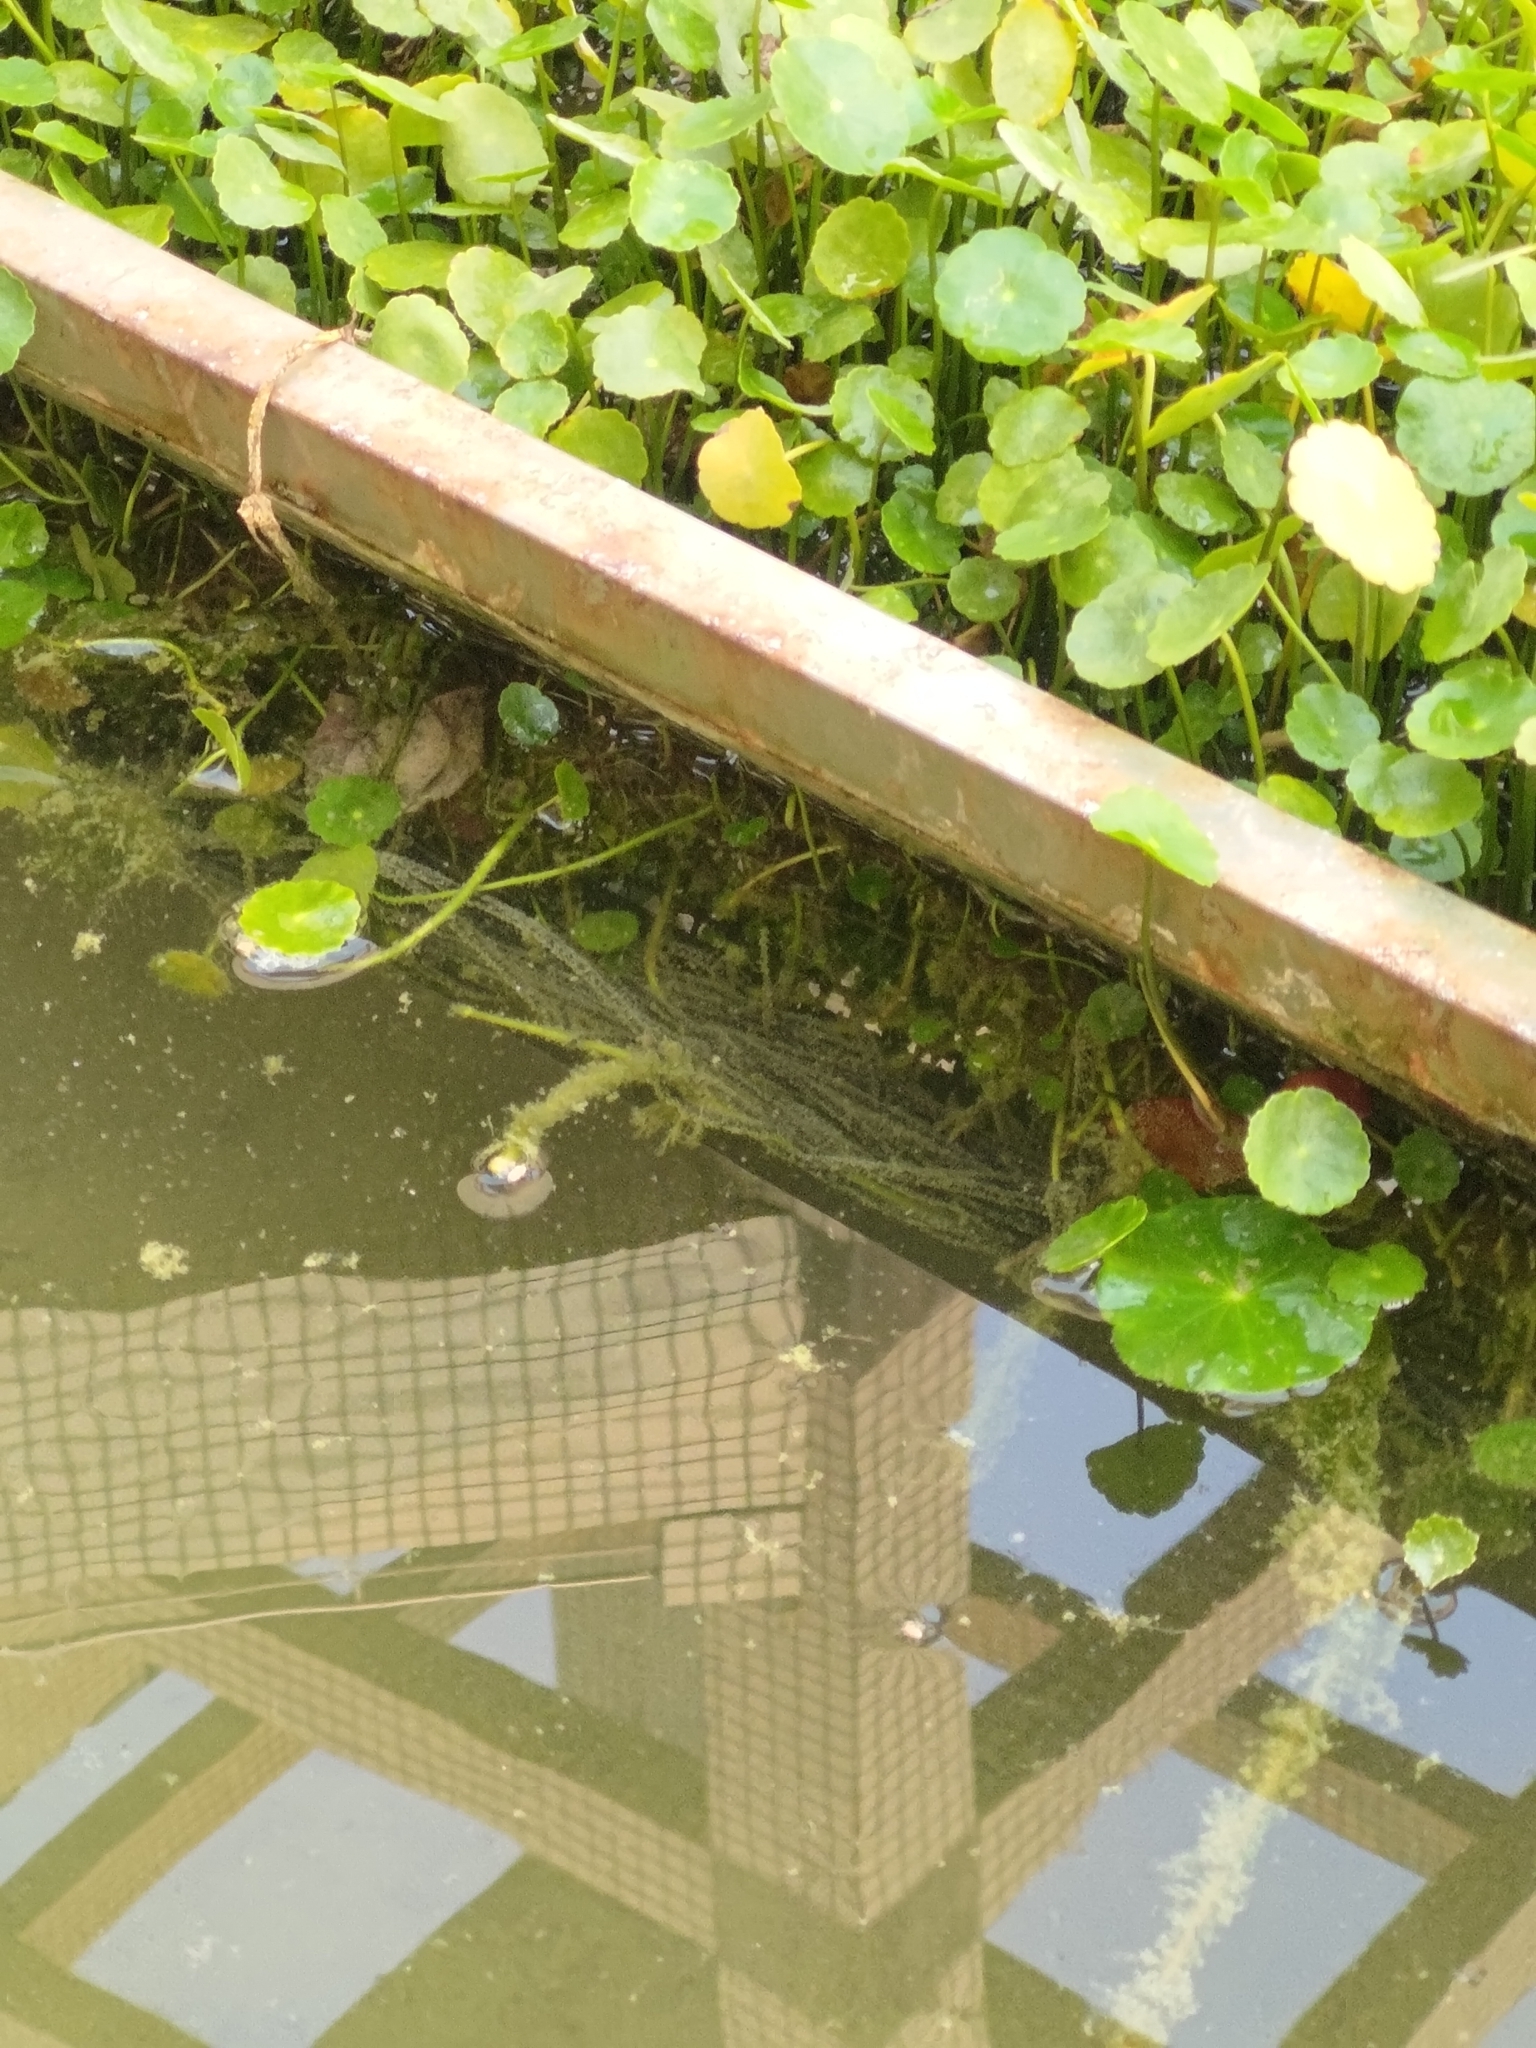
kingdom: Animalia
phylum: Chordata
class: Amphibia
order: Anura
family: Bufonidae
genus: Duttaphrynus
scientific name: Duttaphrynus melanostictus
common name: Common sunda toad
